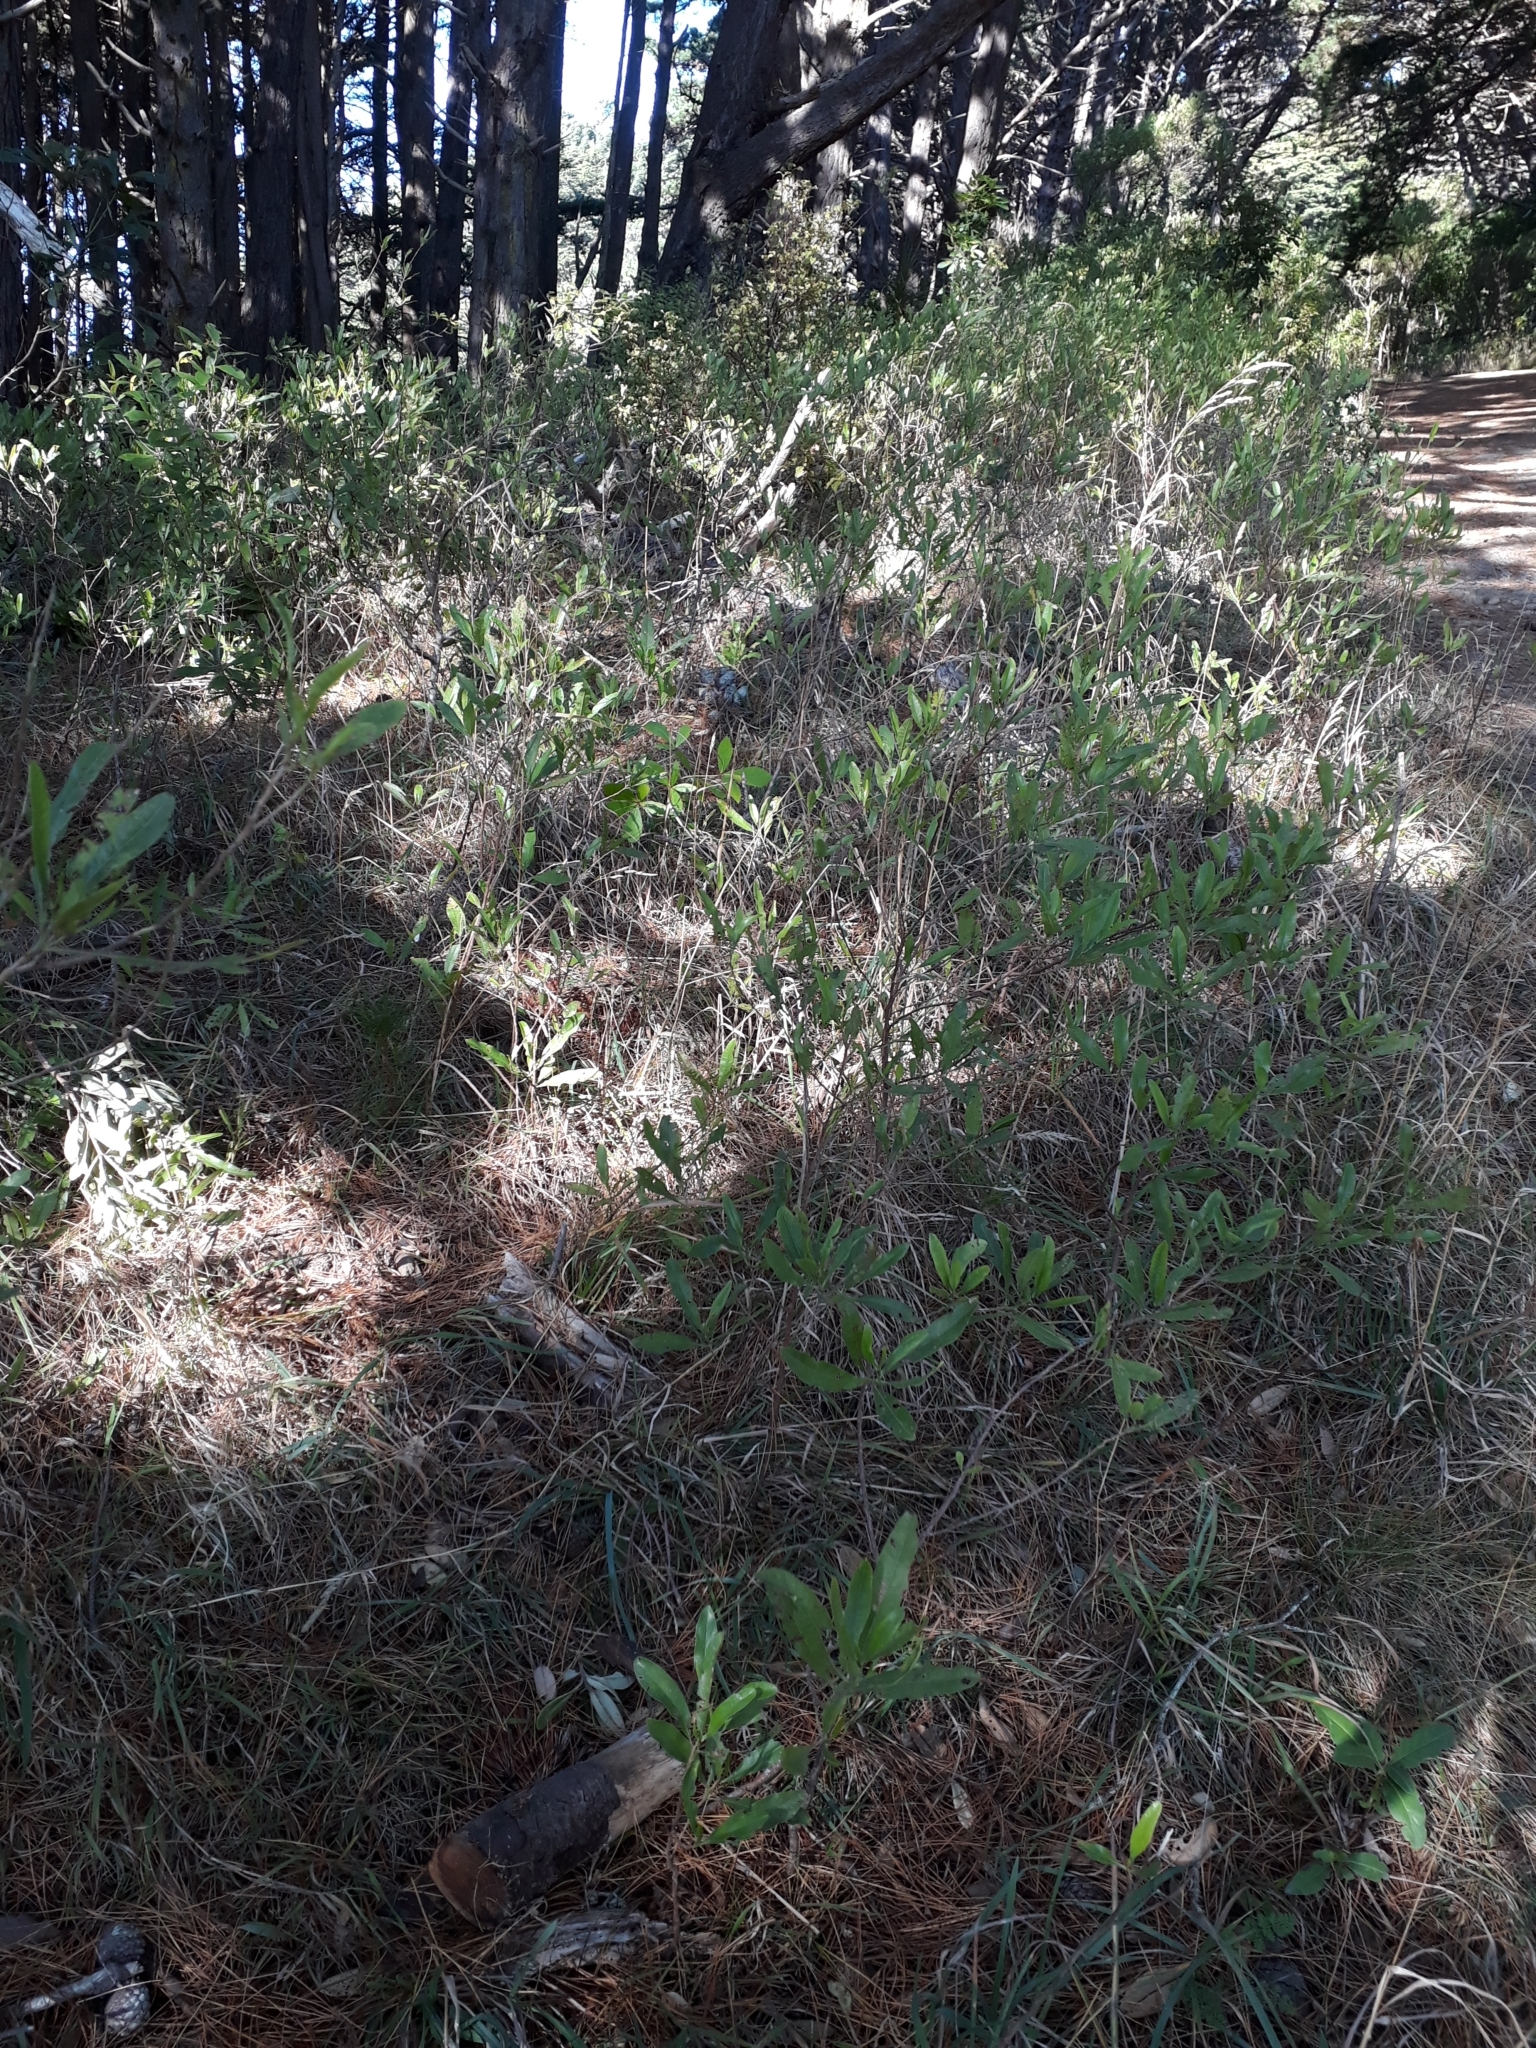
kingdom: Plantae
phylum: Tracheophyta
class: Magnoliopsida
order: Sapindales
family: Sapindaceae
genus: Dodonaea
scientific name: Dodonaea viscosa
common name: Hopbush
